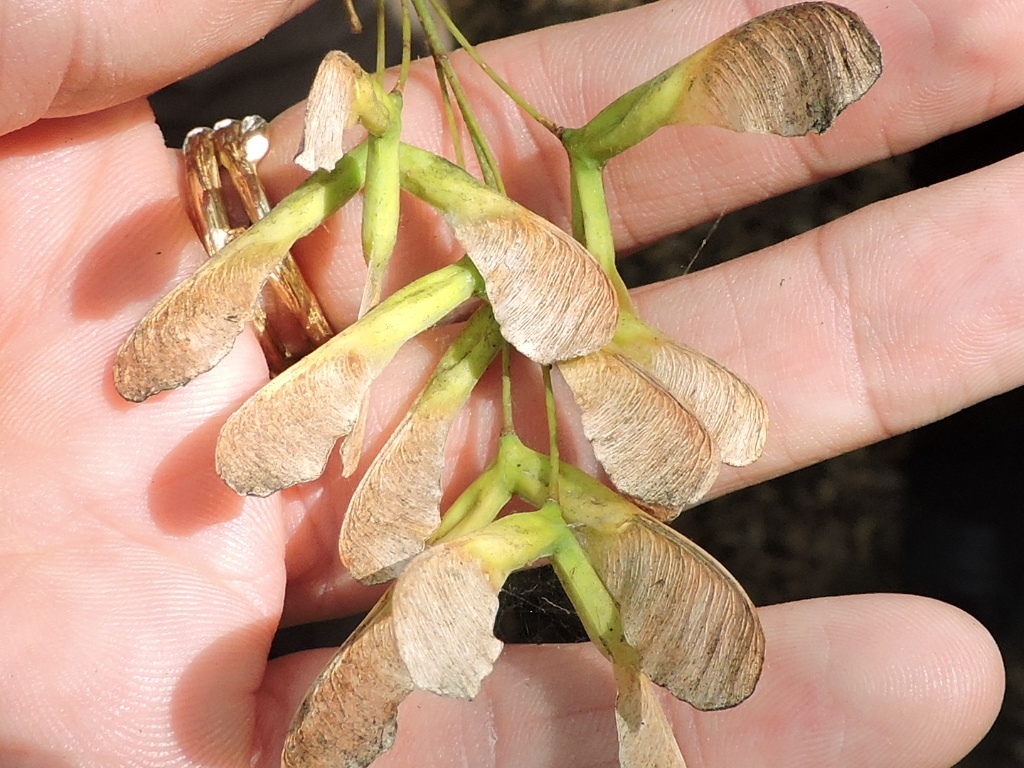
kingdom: Plantae
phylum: Tracheophyta
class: Magnoliopsida
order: Sapindales
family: Sapindaceae
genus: Acer
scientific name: Acer negundo
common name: Ashleaf maple
